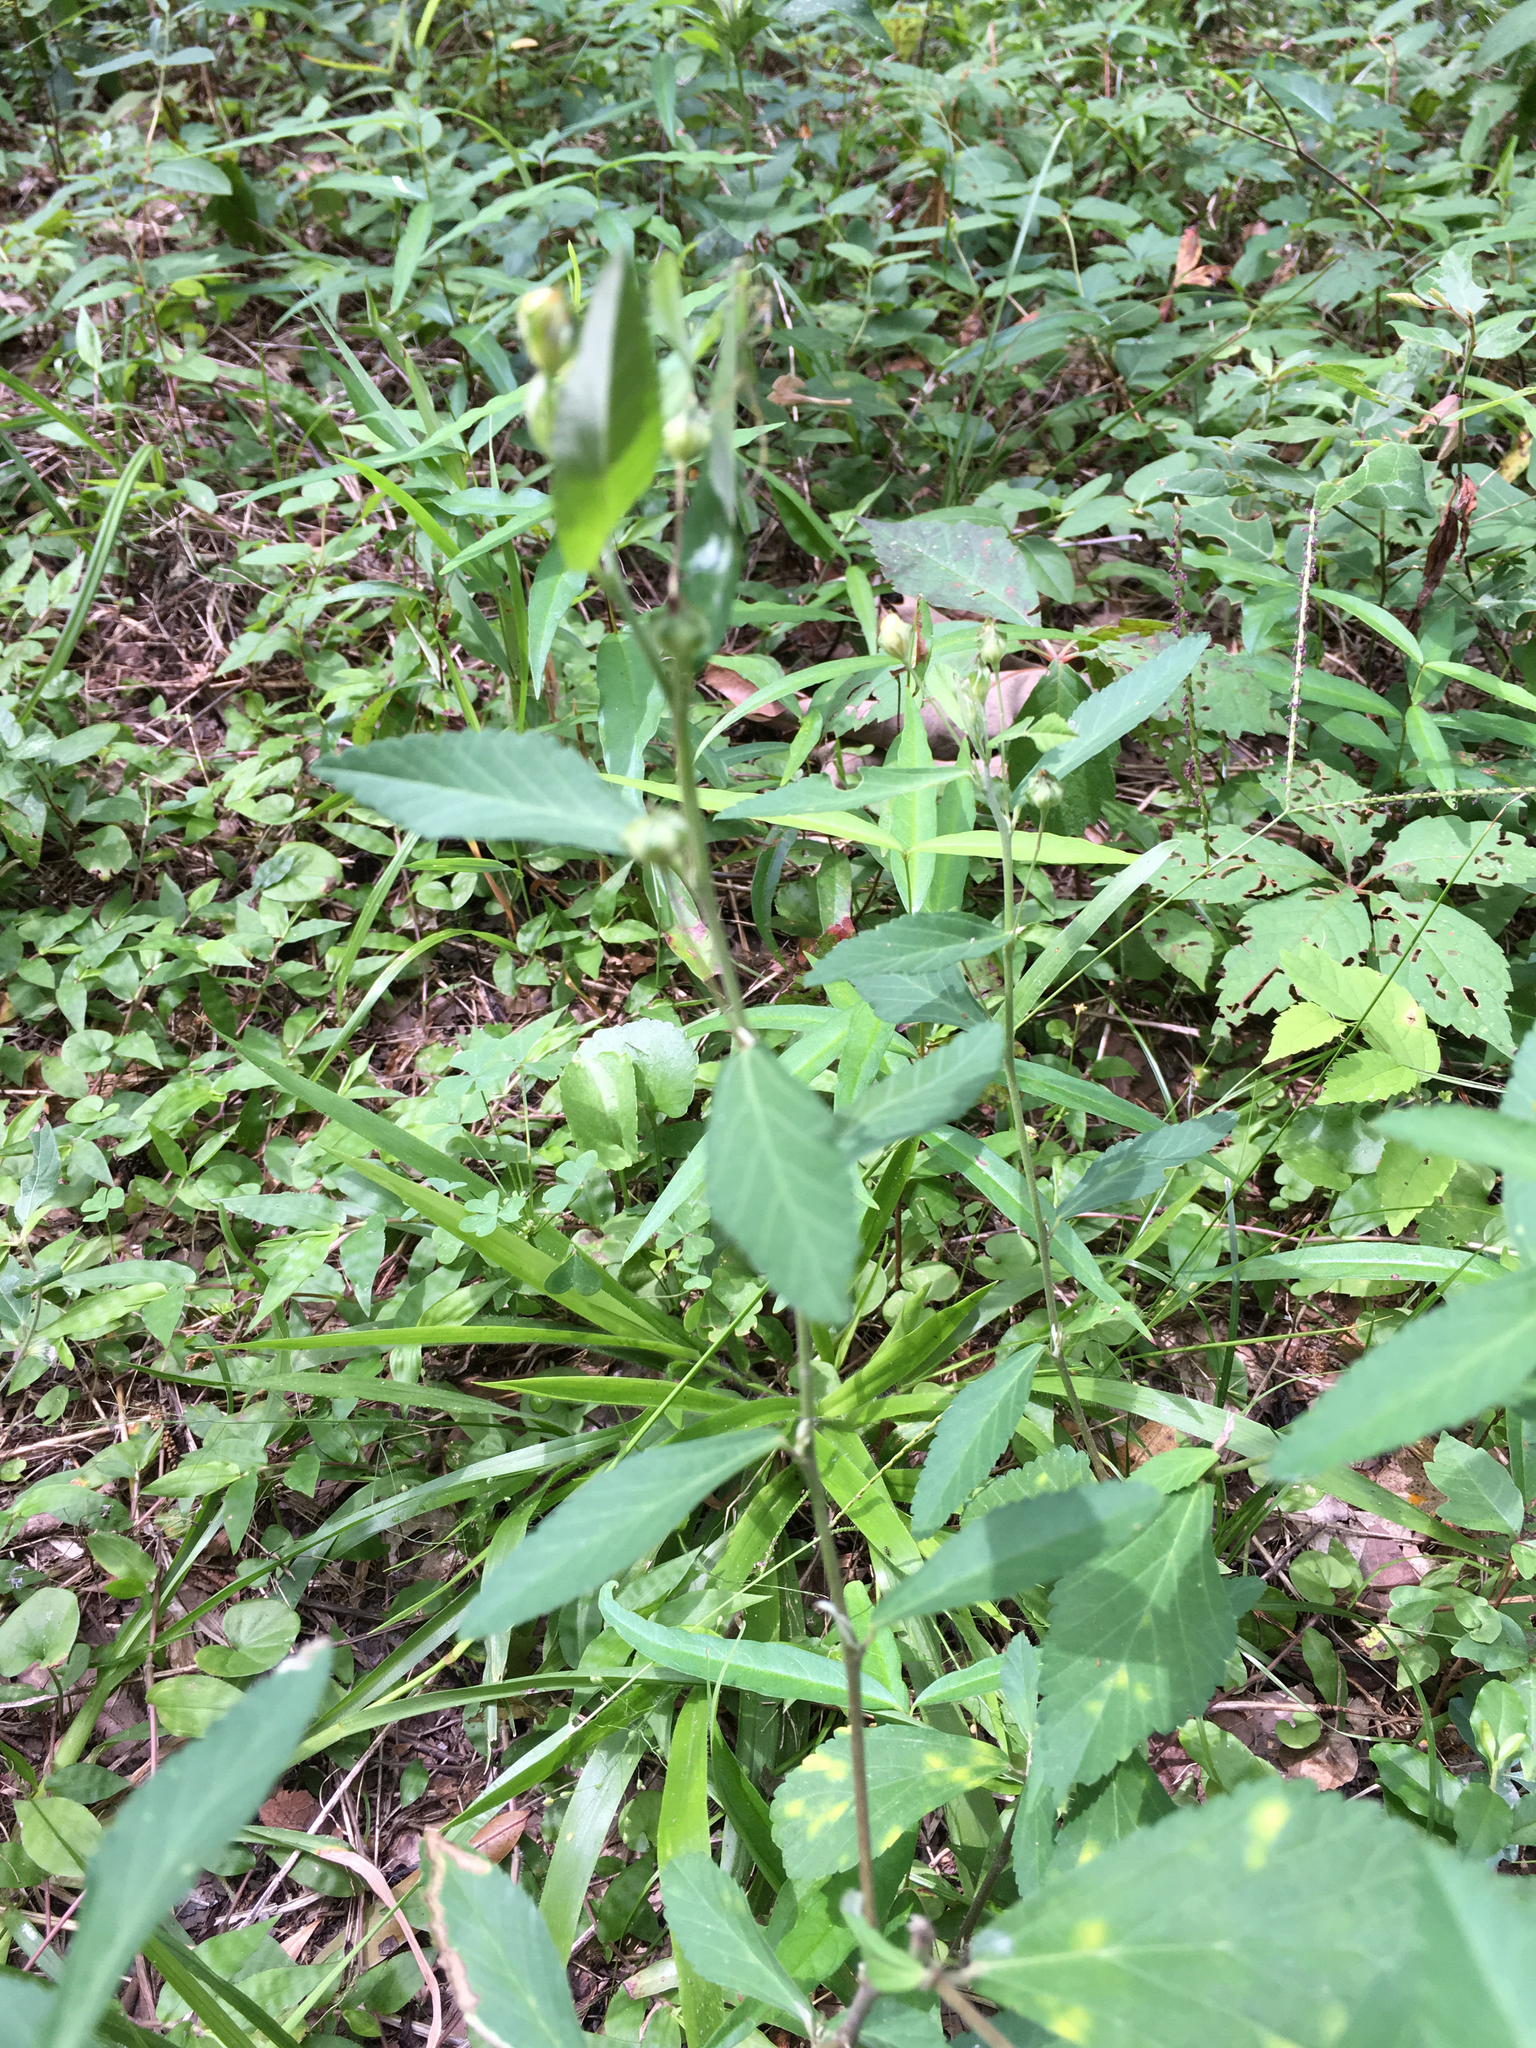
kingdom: Plantae
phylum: Tracheophyta
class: Magnoliopsida
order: Malvales
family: Malvaceae
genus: Sida
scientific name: Sida rhombifolia
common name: Queensland-hemp
